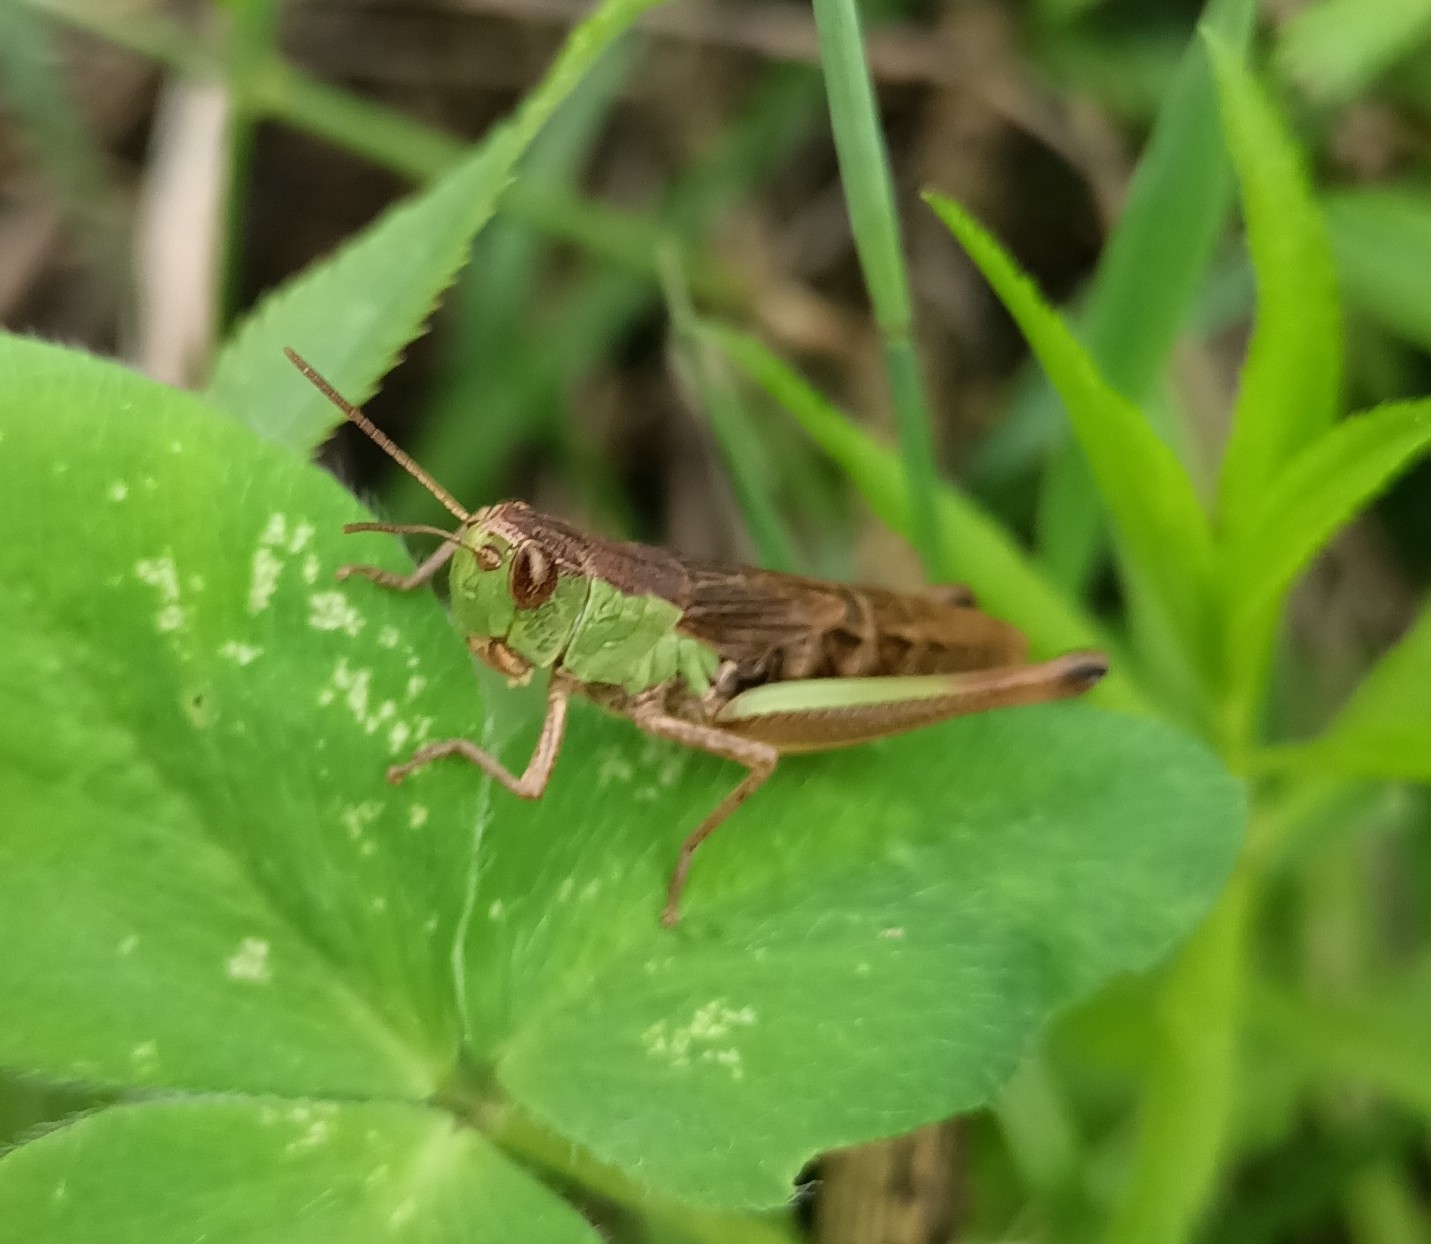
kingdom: Animalia
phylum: Arthropoda
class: Insecta
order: Orthoptera
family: Acrididae
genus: Pseudochorthippus
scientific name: Pseudochorthippus parallelus
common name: Meadow grasshopper
